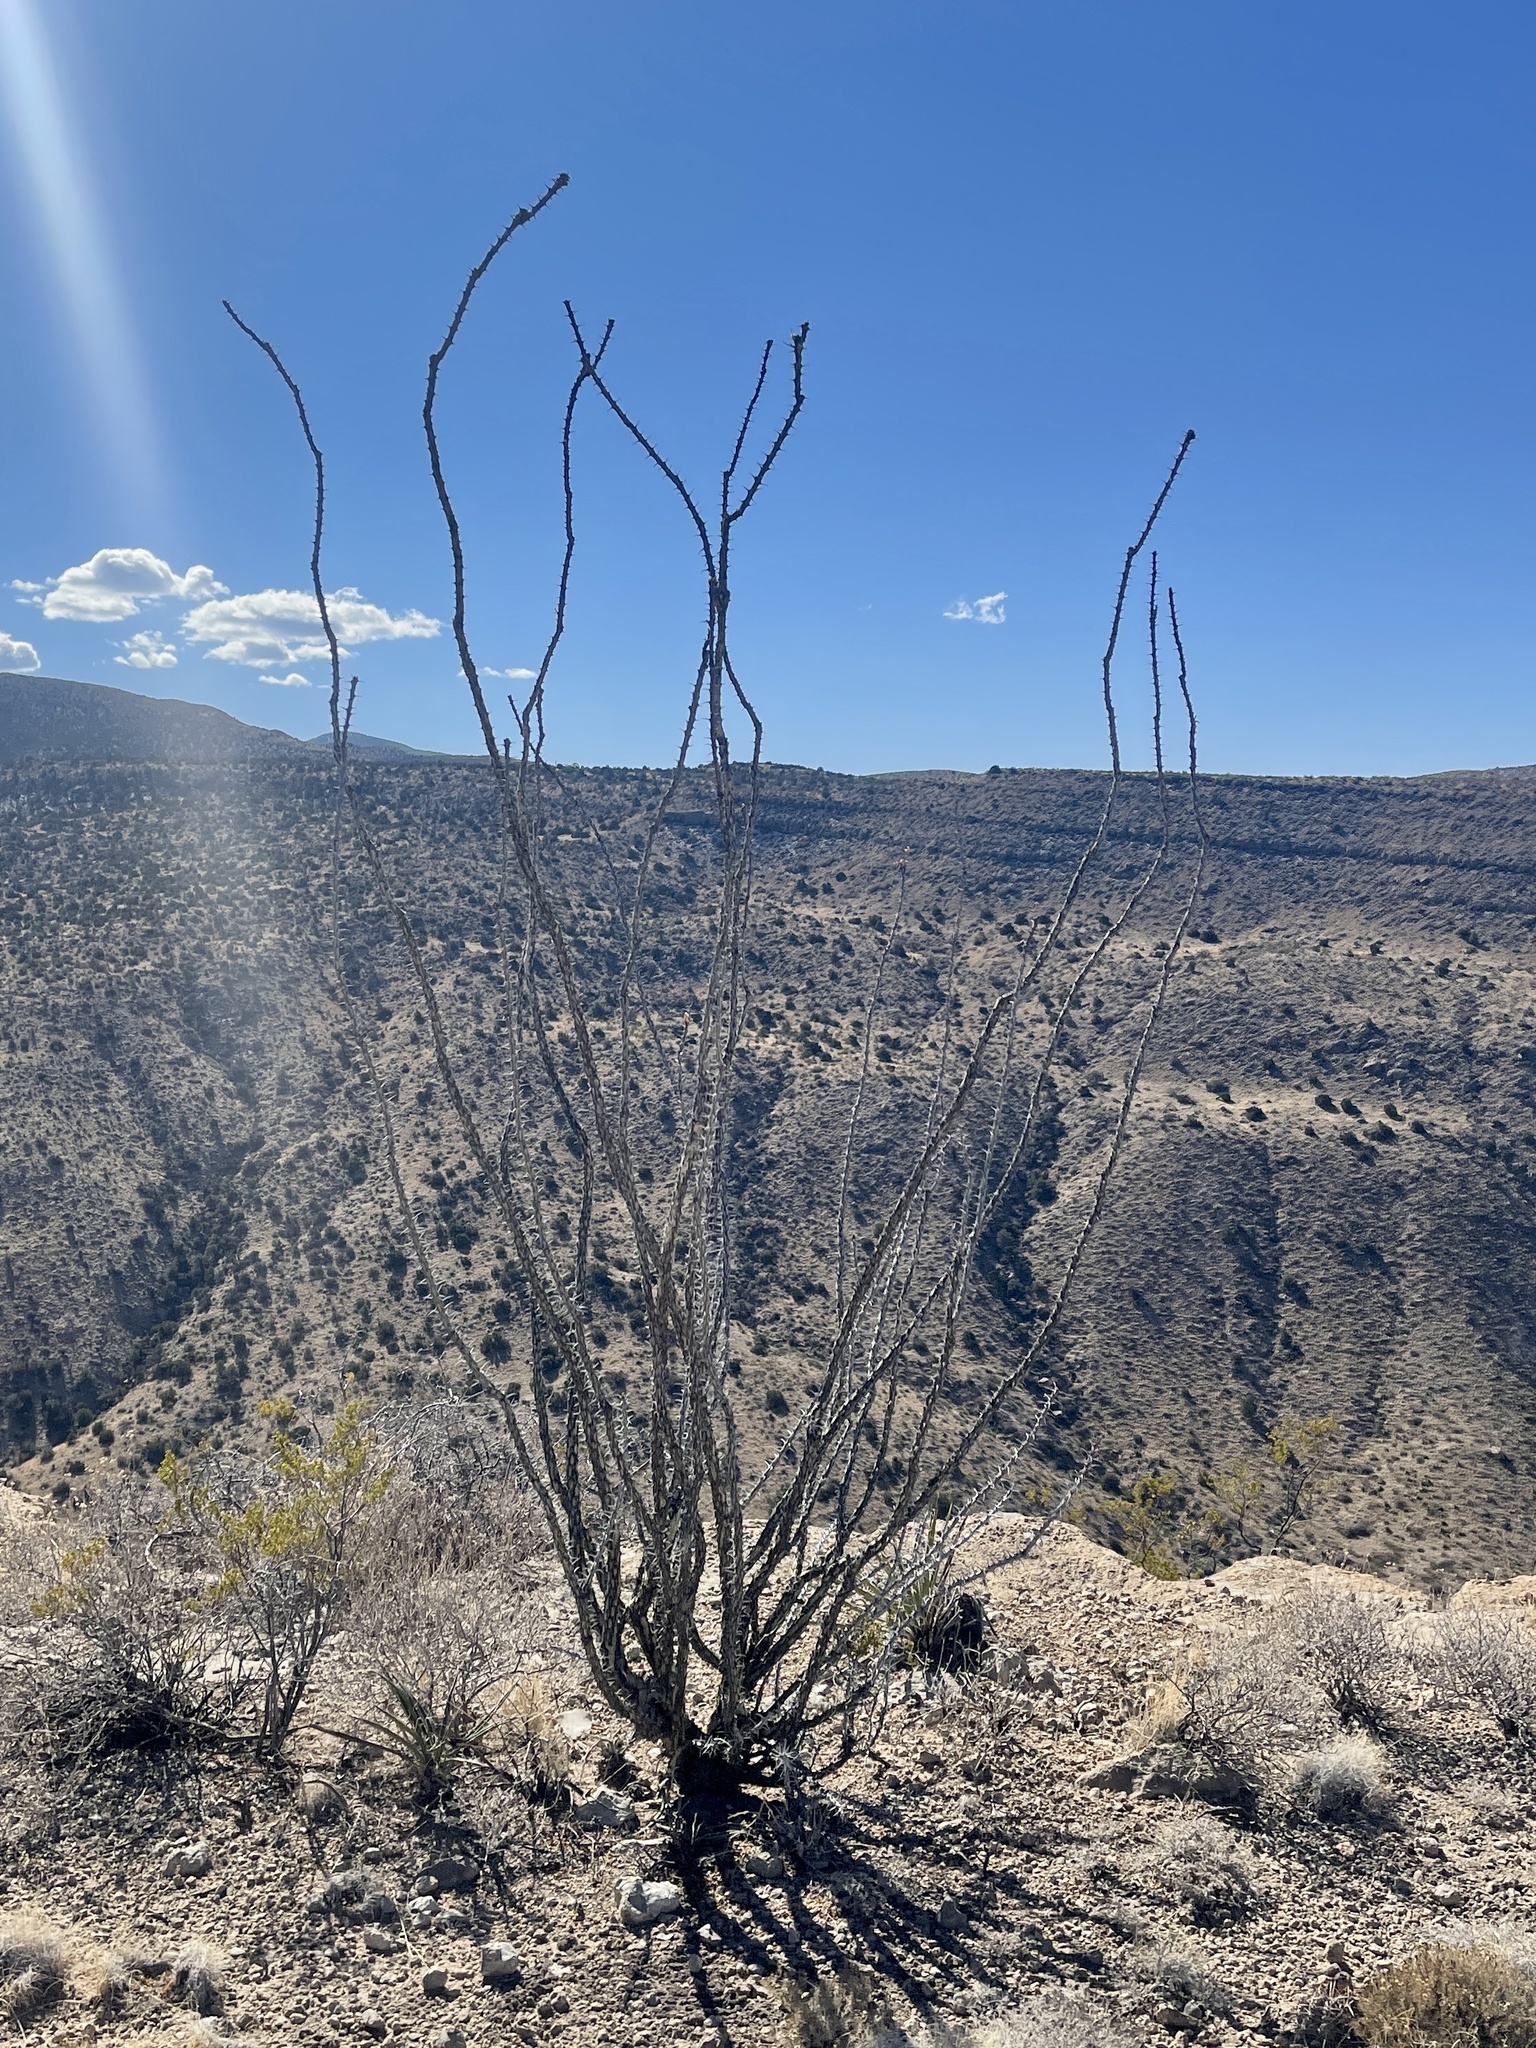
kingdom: Plantae
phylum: Tracheophyta
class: Magnoliopsida
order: Ericales
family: Fouquieriaceae
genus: Fouquieria
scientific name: Fouquieria splendens
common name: Vine-cactus
